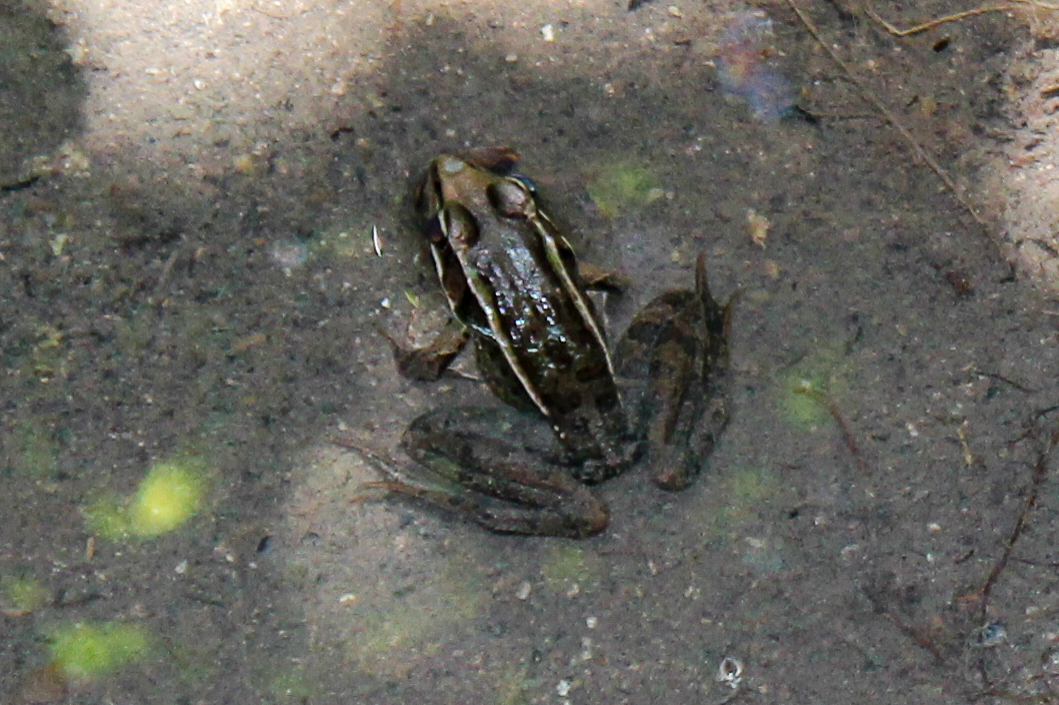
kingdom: Animalia
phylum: Chordata
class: Amphibia
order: Anura
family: Ranidae
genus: Lithobates
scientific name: Lithobates brownorum
